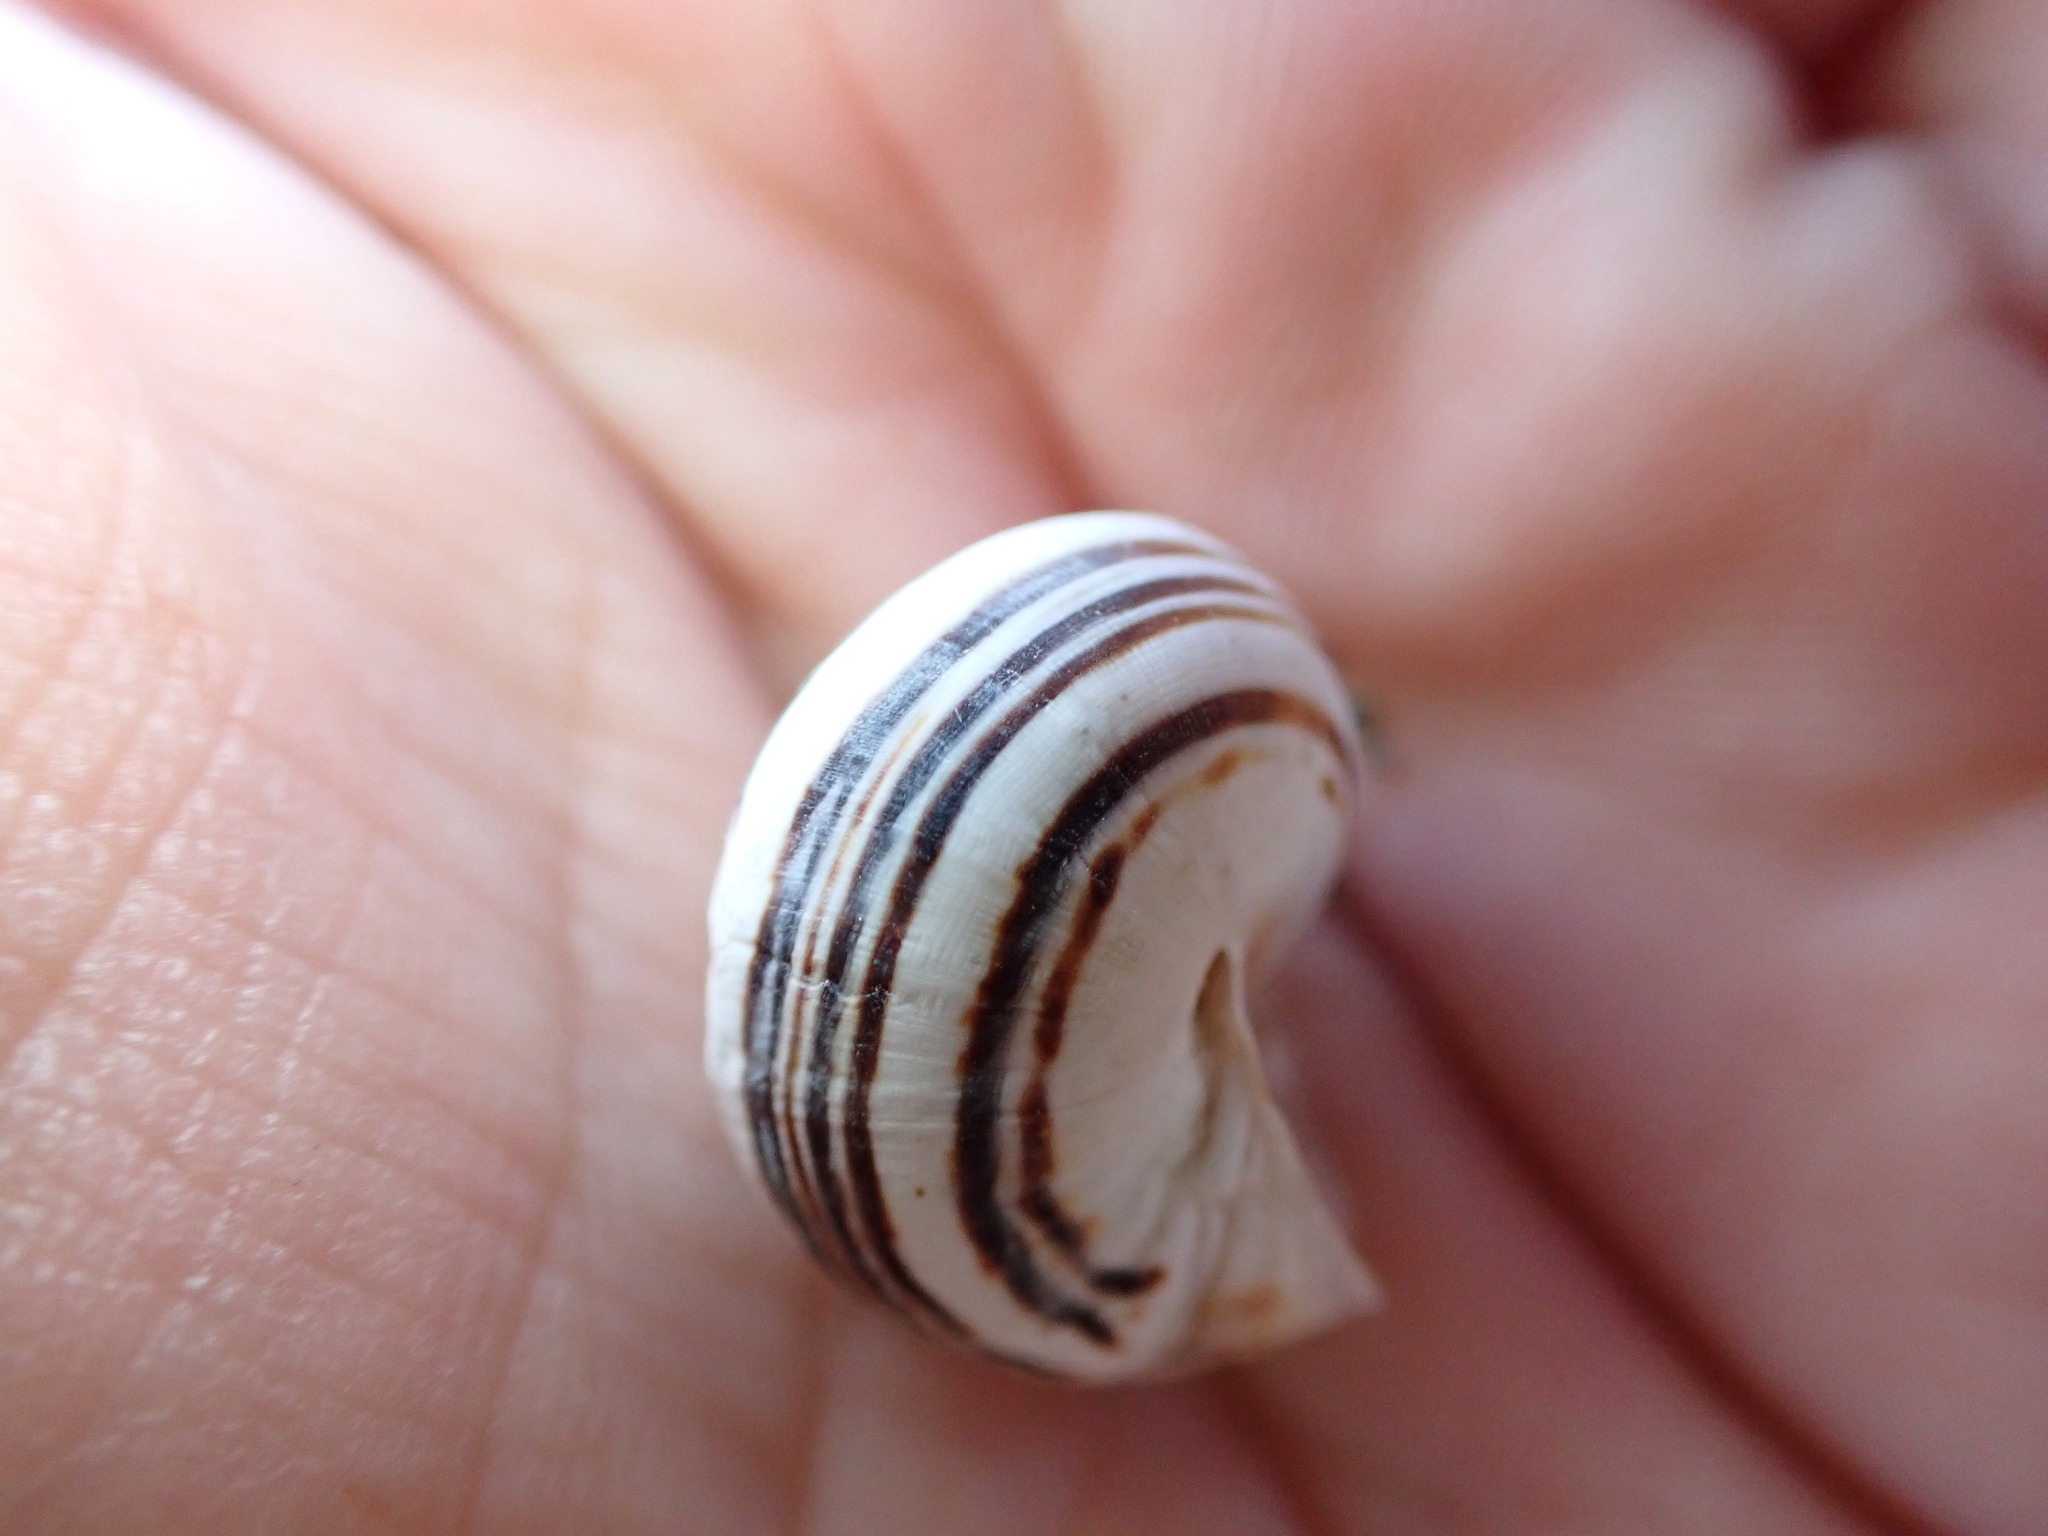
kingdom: Animalia
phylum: Mollusca
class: Gastropoda
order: Stylommatophora
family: Helicidae
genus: Theba
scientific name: Theba pisana
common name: White snail
